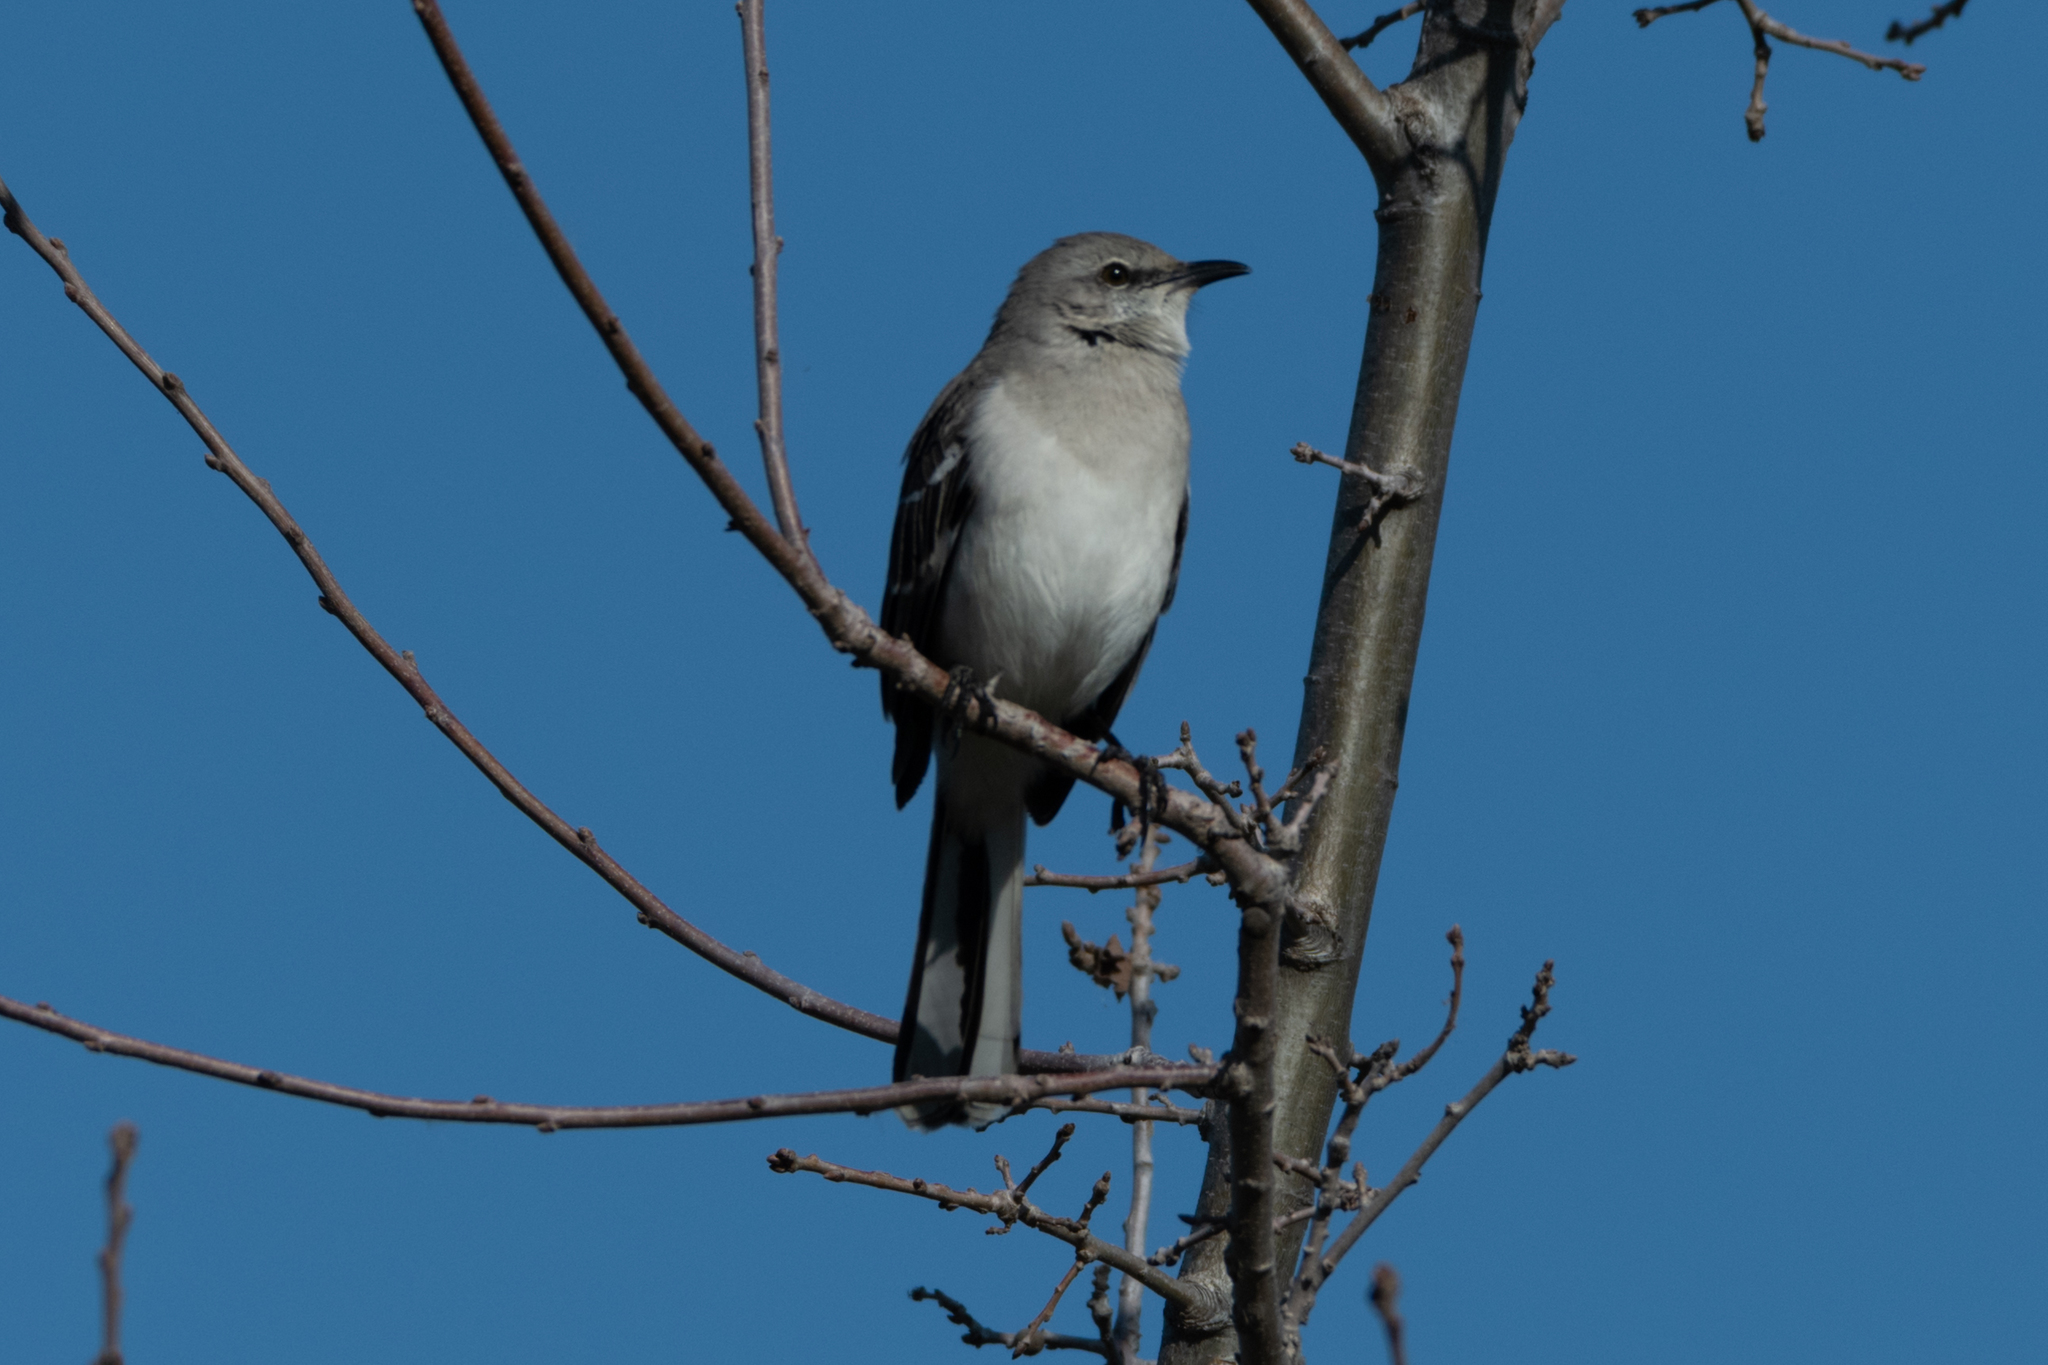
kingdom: Animalia
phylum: Chordata
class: Aves
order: Passeriformes
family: Mimidae
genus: Mimus
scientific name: Mimus polyglottos
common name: Northern mockingbird
